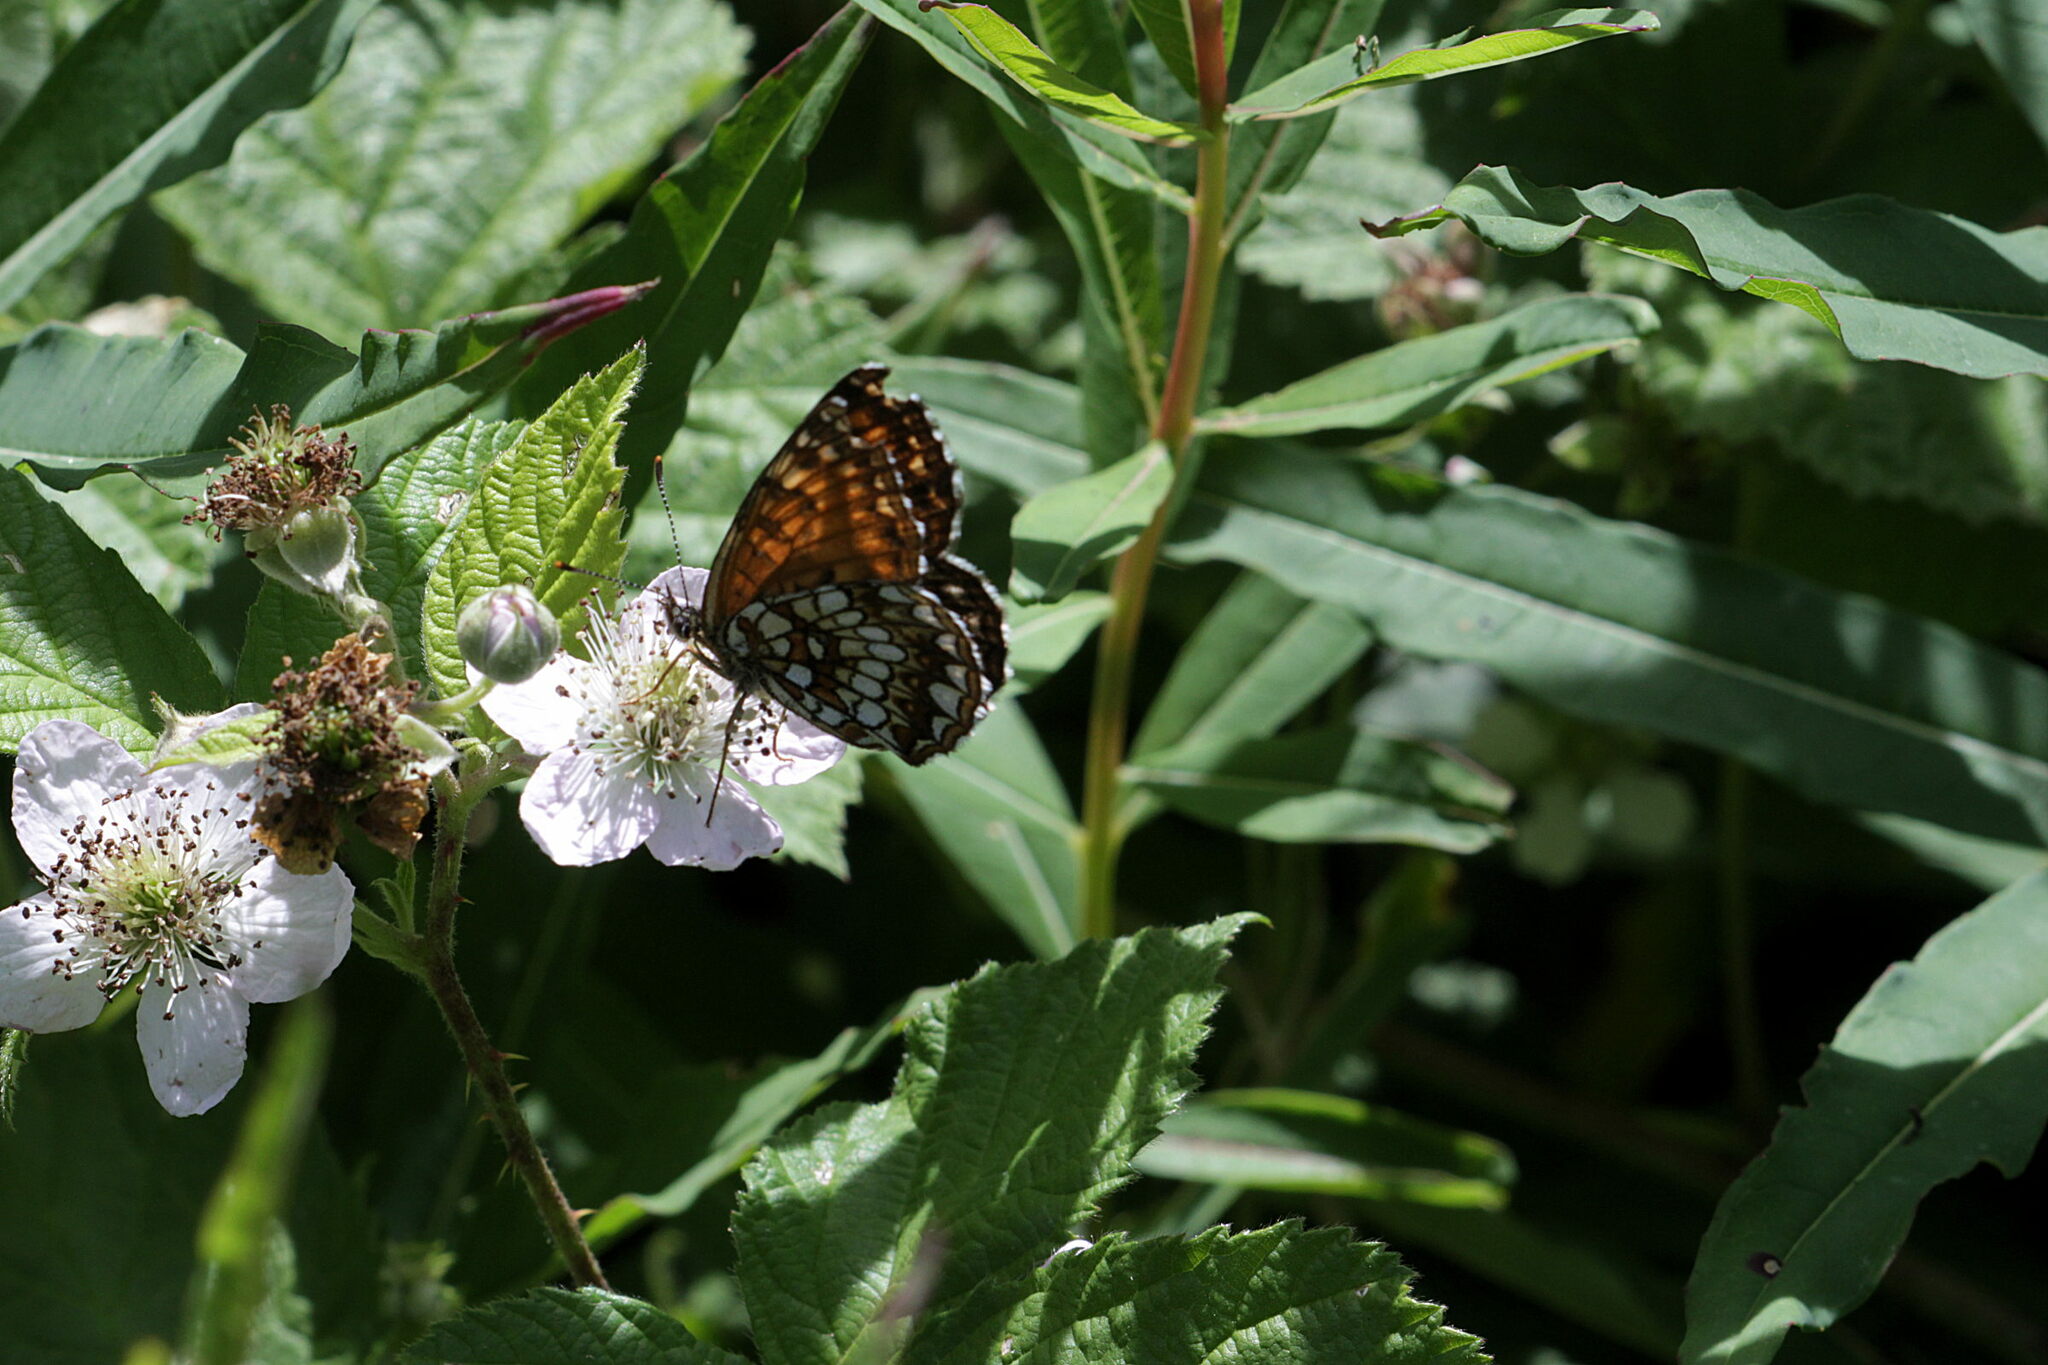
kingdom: Animalia
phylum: Arthropoda
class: Insecta
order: Lepidoptera
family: Nymphalidae
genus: Melitaea
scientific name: Melitaea diamina
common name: False heath fritillary
